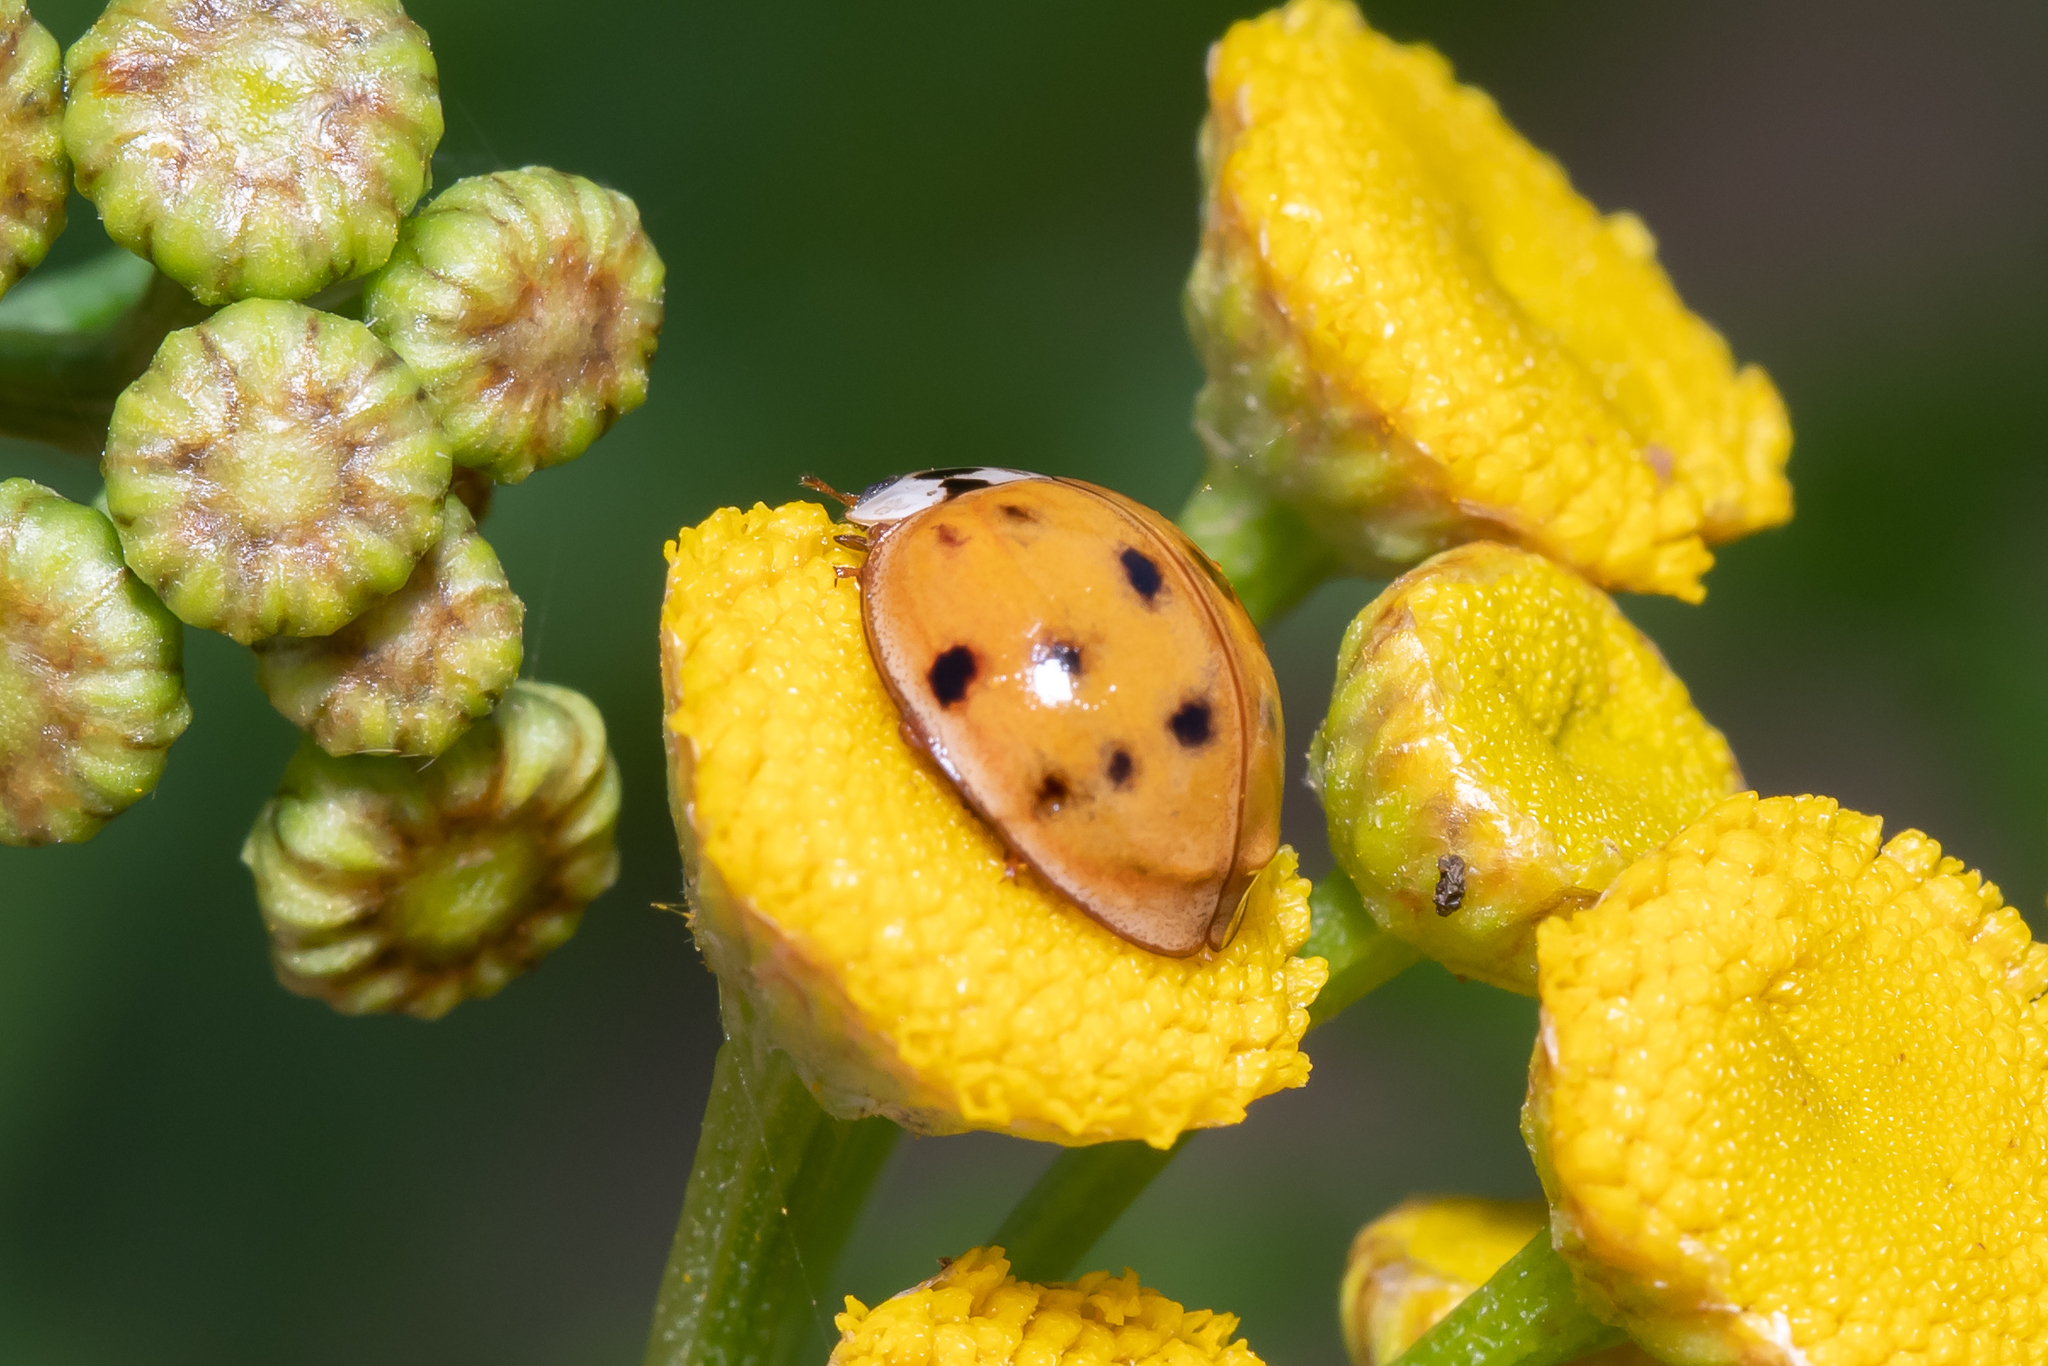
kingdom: Animalia
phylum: Arthropoda
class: Insecta
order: Coleoptera
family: Coccinellidae
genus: Harmonia
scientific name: Harmonia axyridis
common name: Harlequin ladybird
